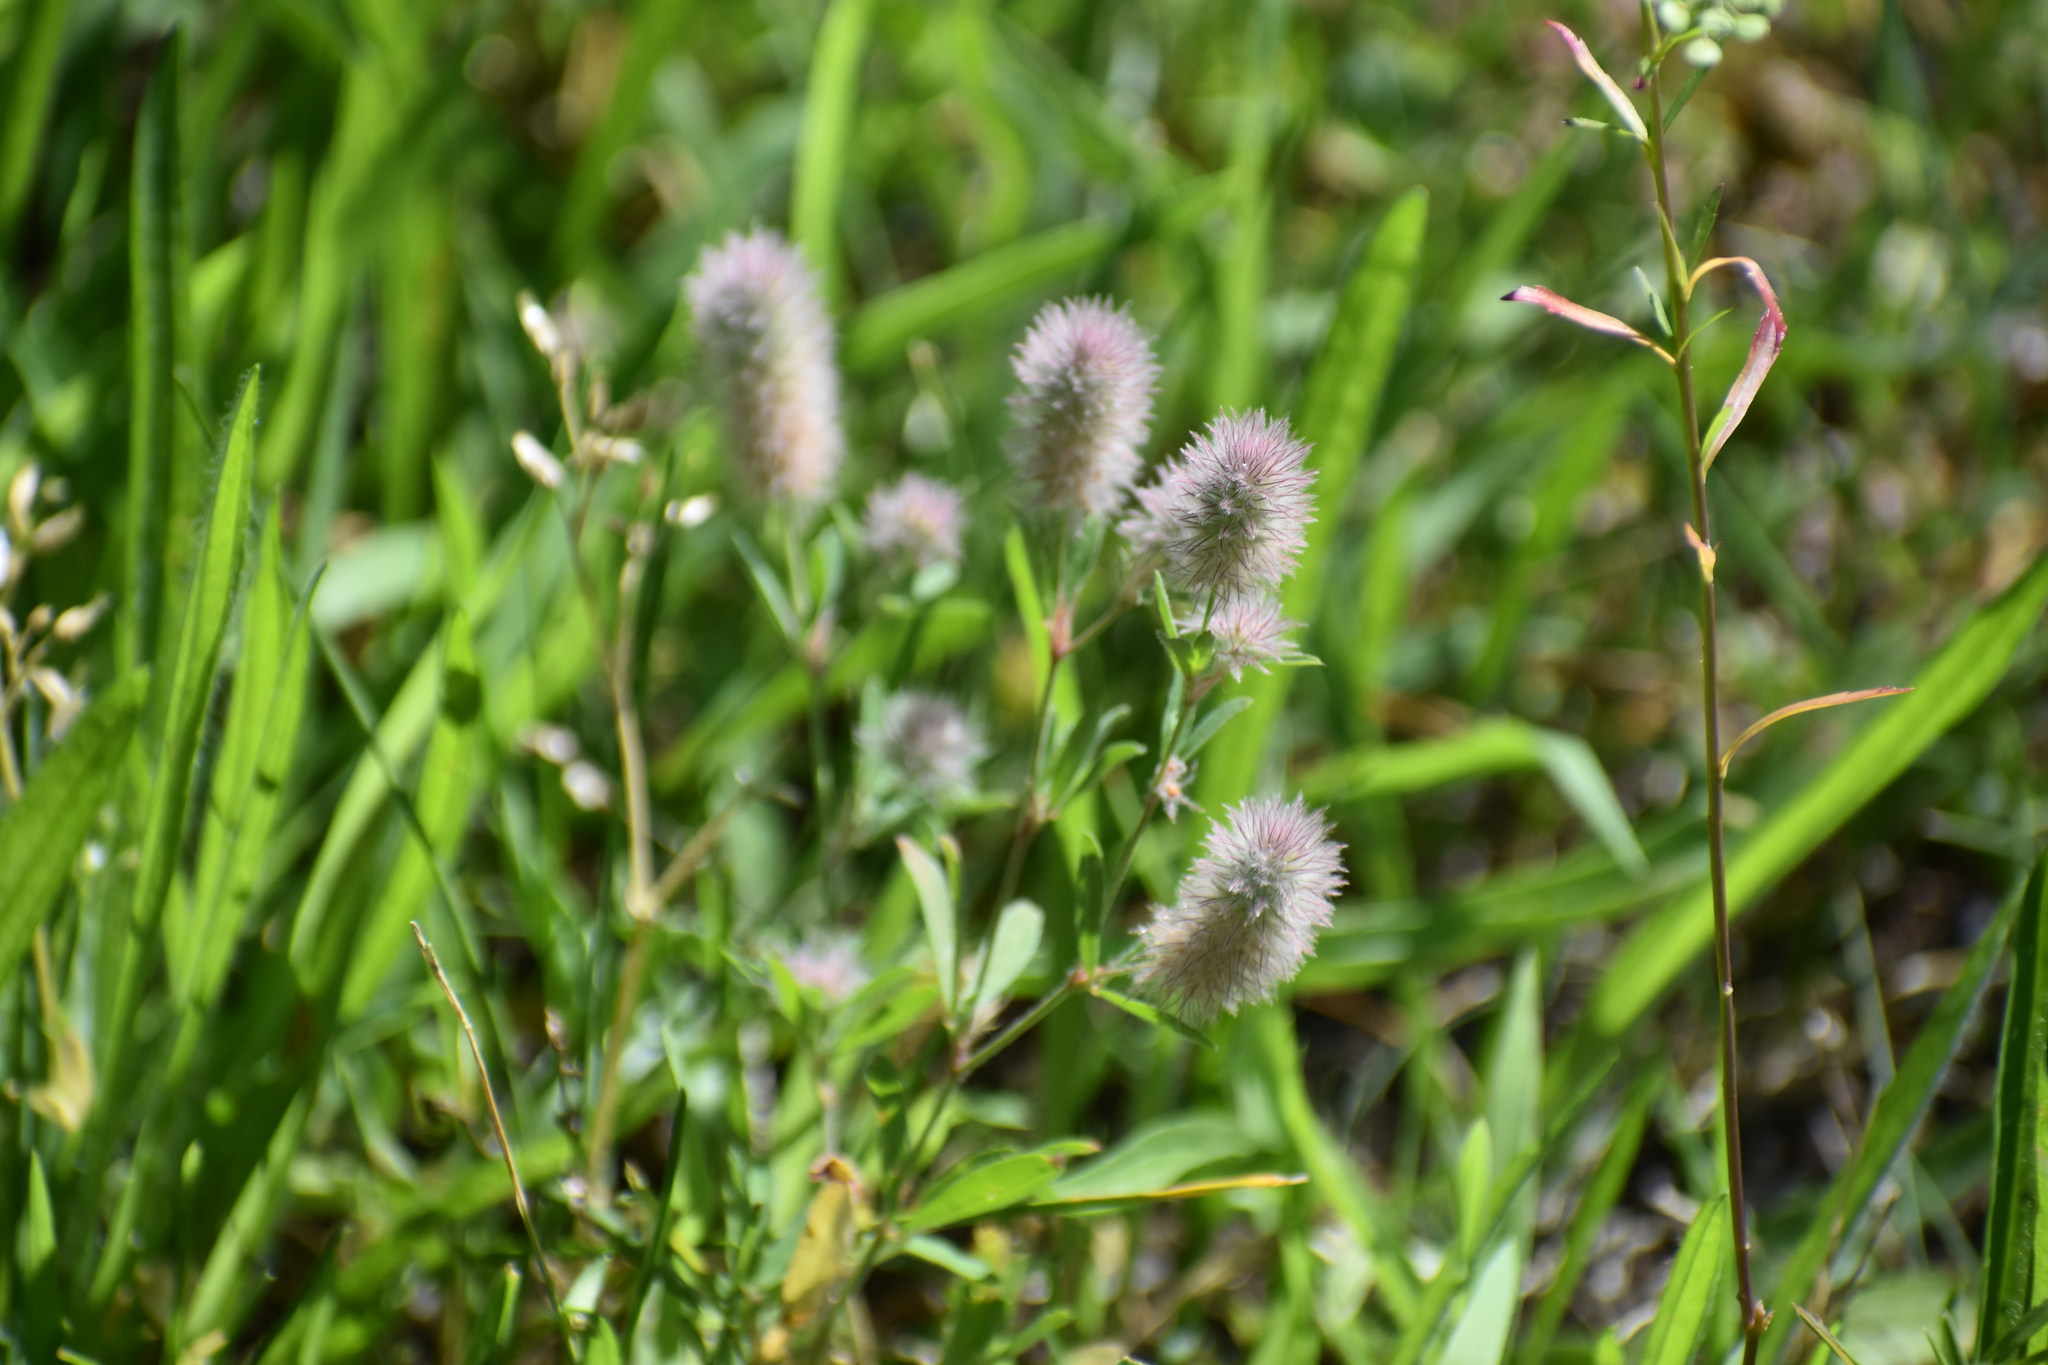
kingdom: Plantae
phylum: Tracheophyta
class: Magnoliopsida
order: Fabales
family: Fabaceae
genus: Trifolium
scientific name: Trifolium arvense
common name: Hare's-foot clover
